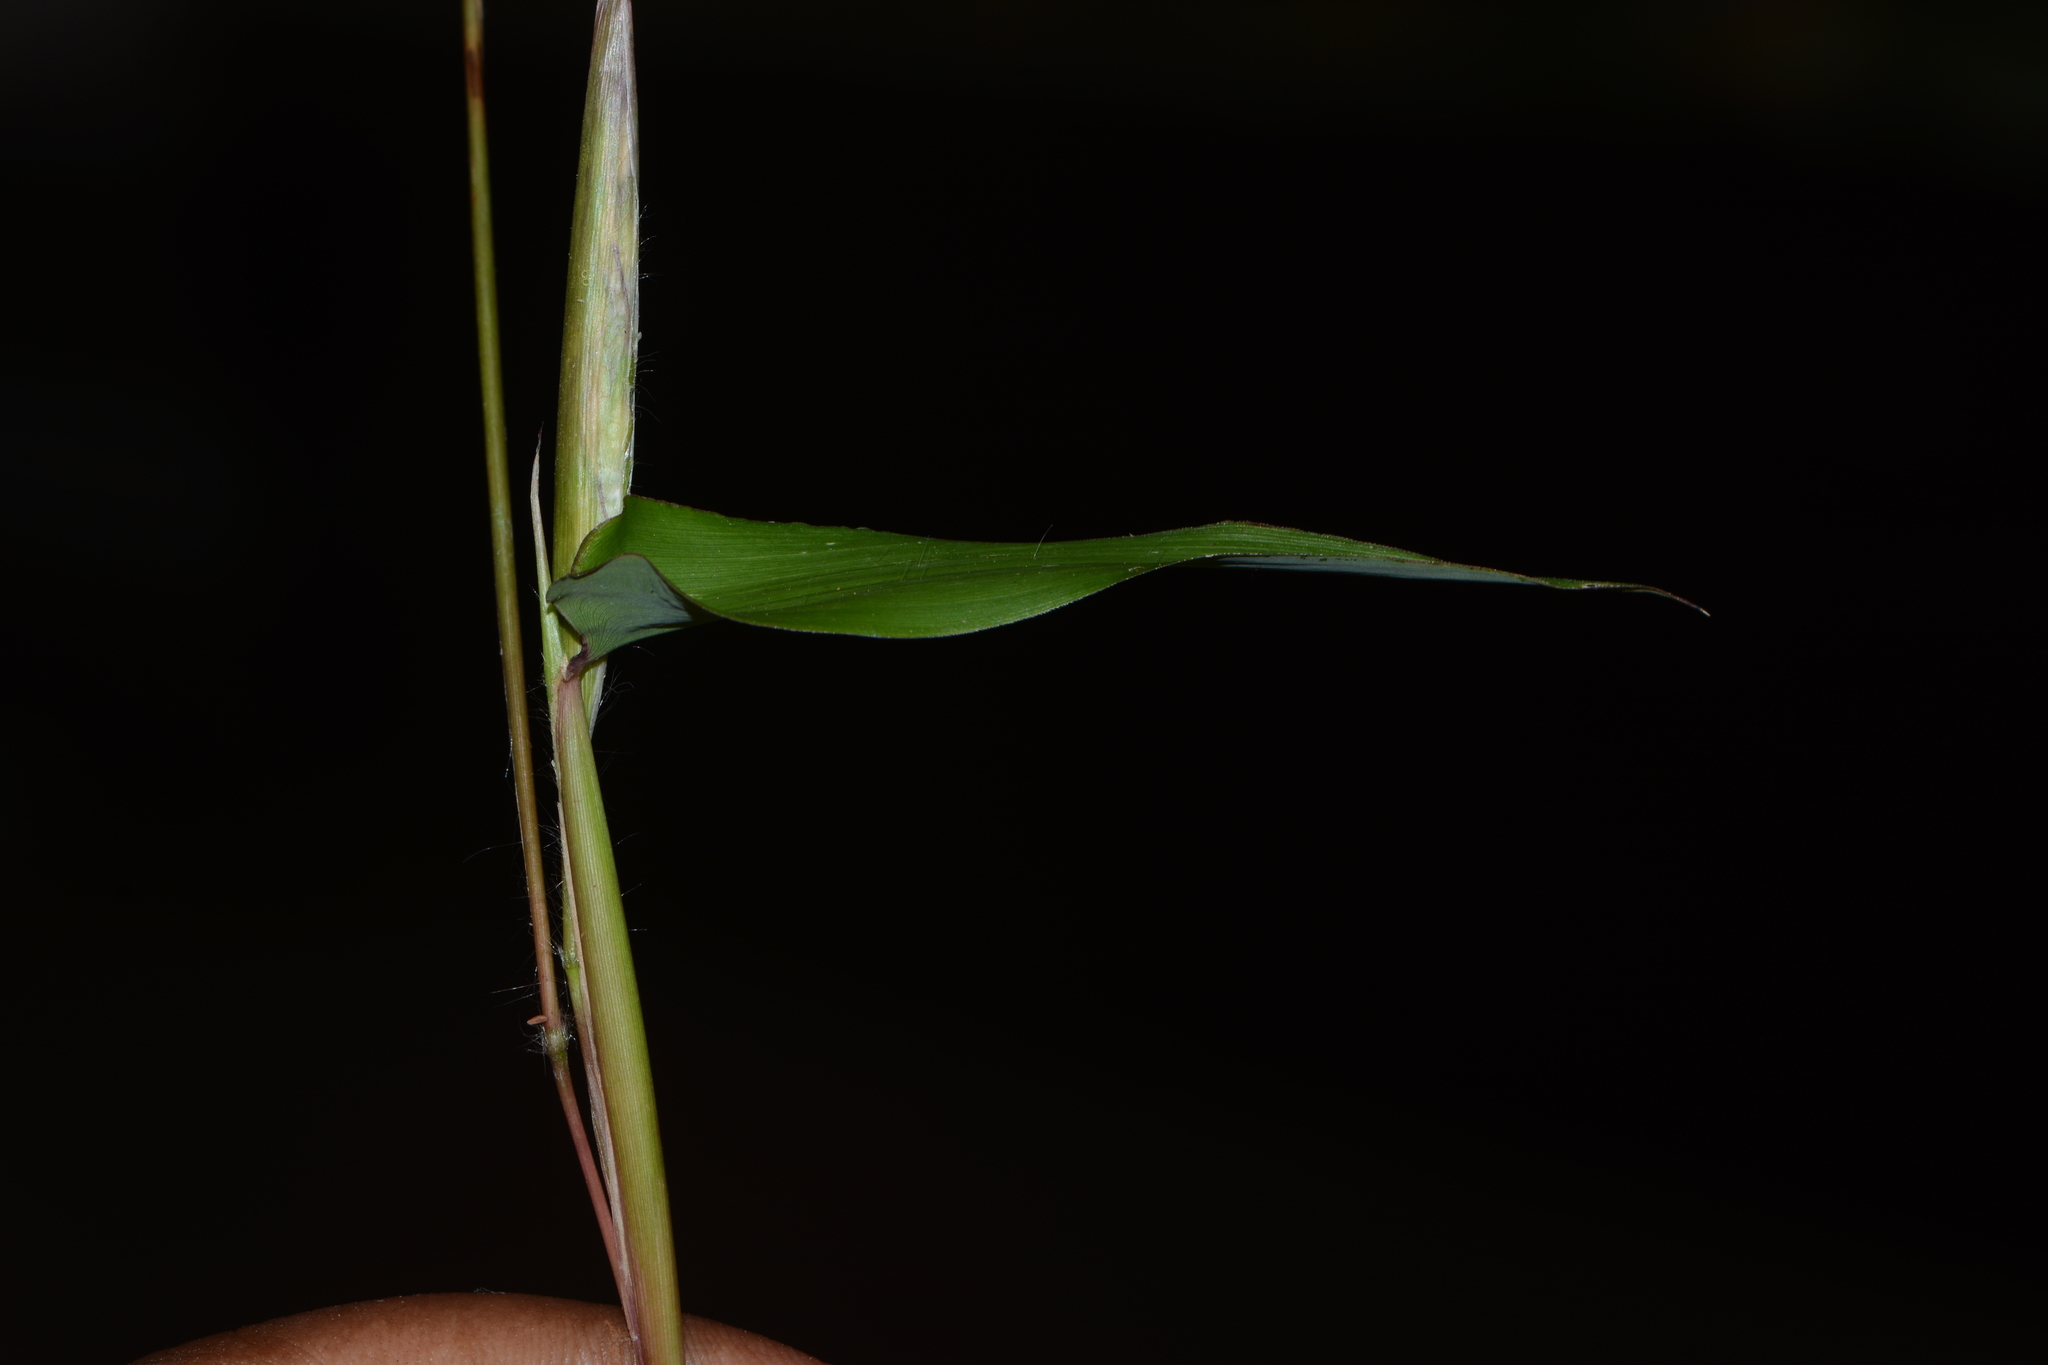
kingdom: Plantae
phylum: Tracheophyta
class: Liliopsida
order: Poales
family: Poaceae
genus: Ischaemum
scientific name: Ischaemum semisagittatum
